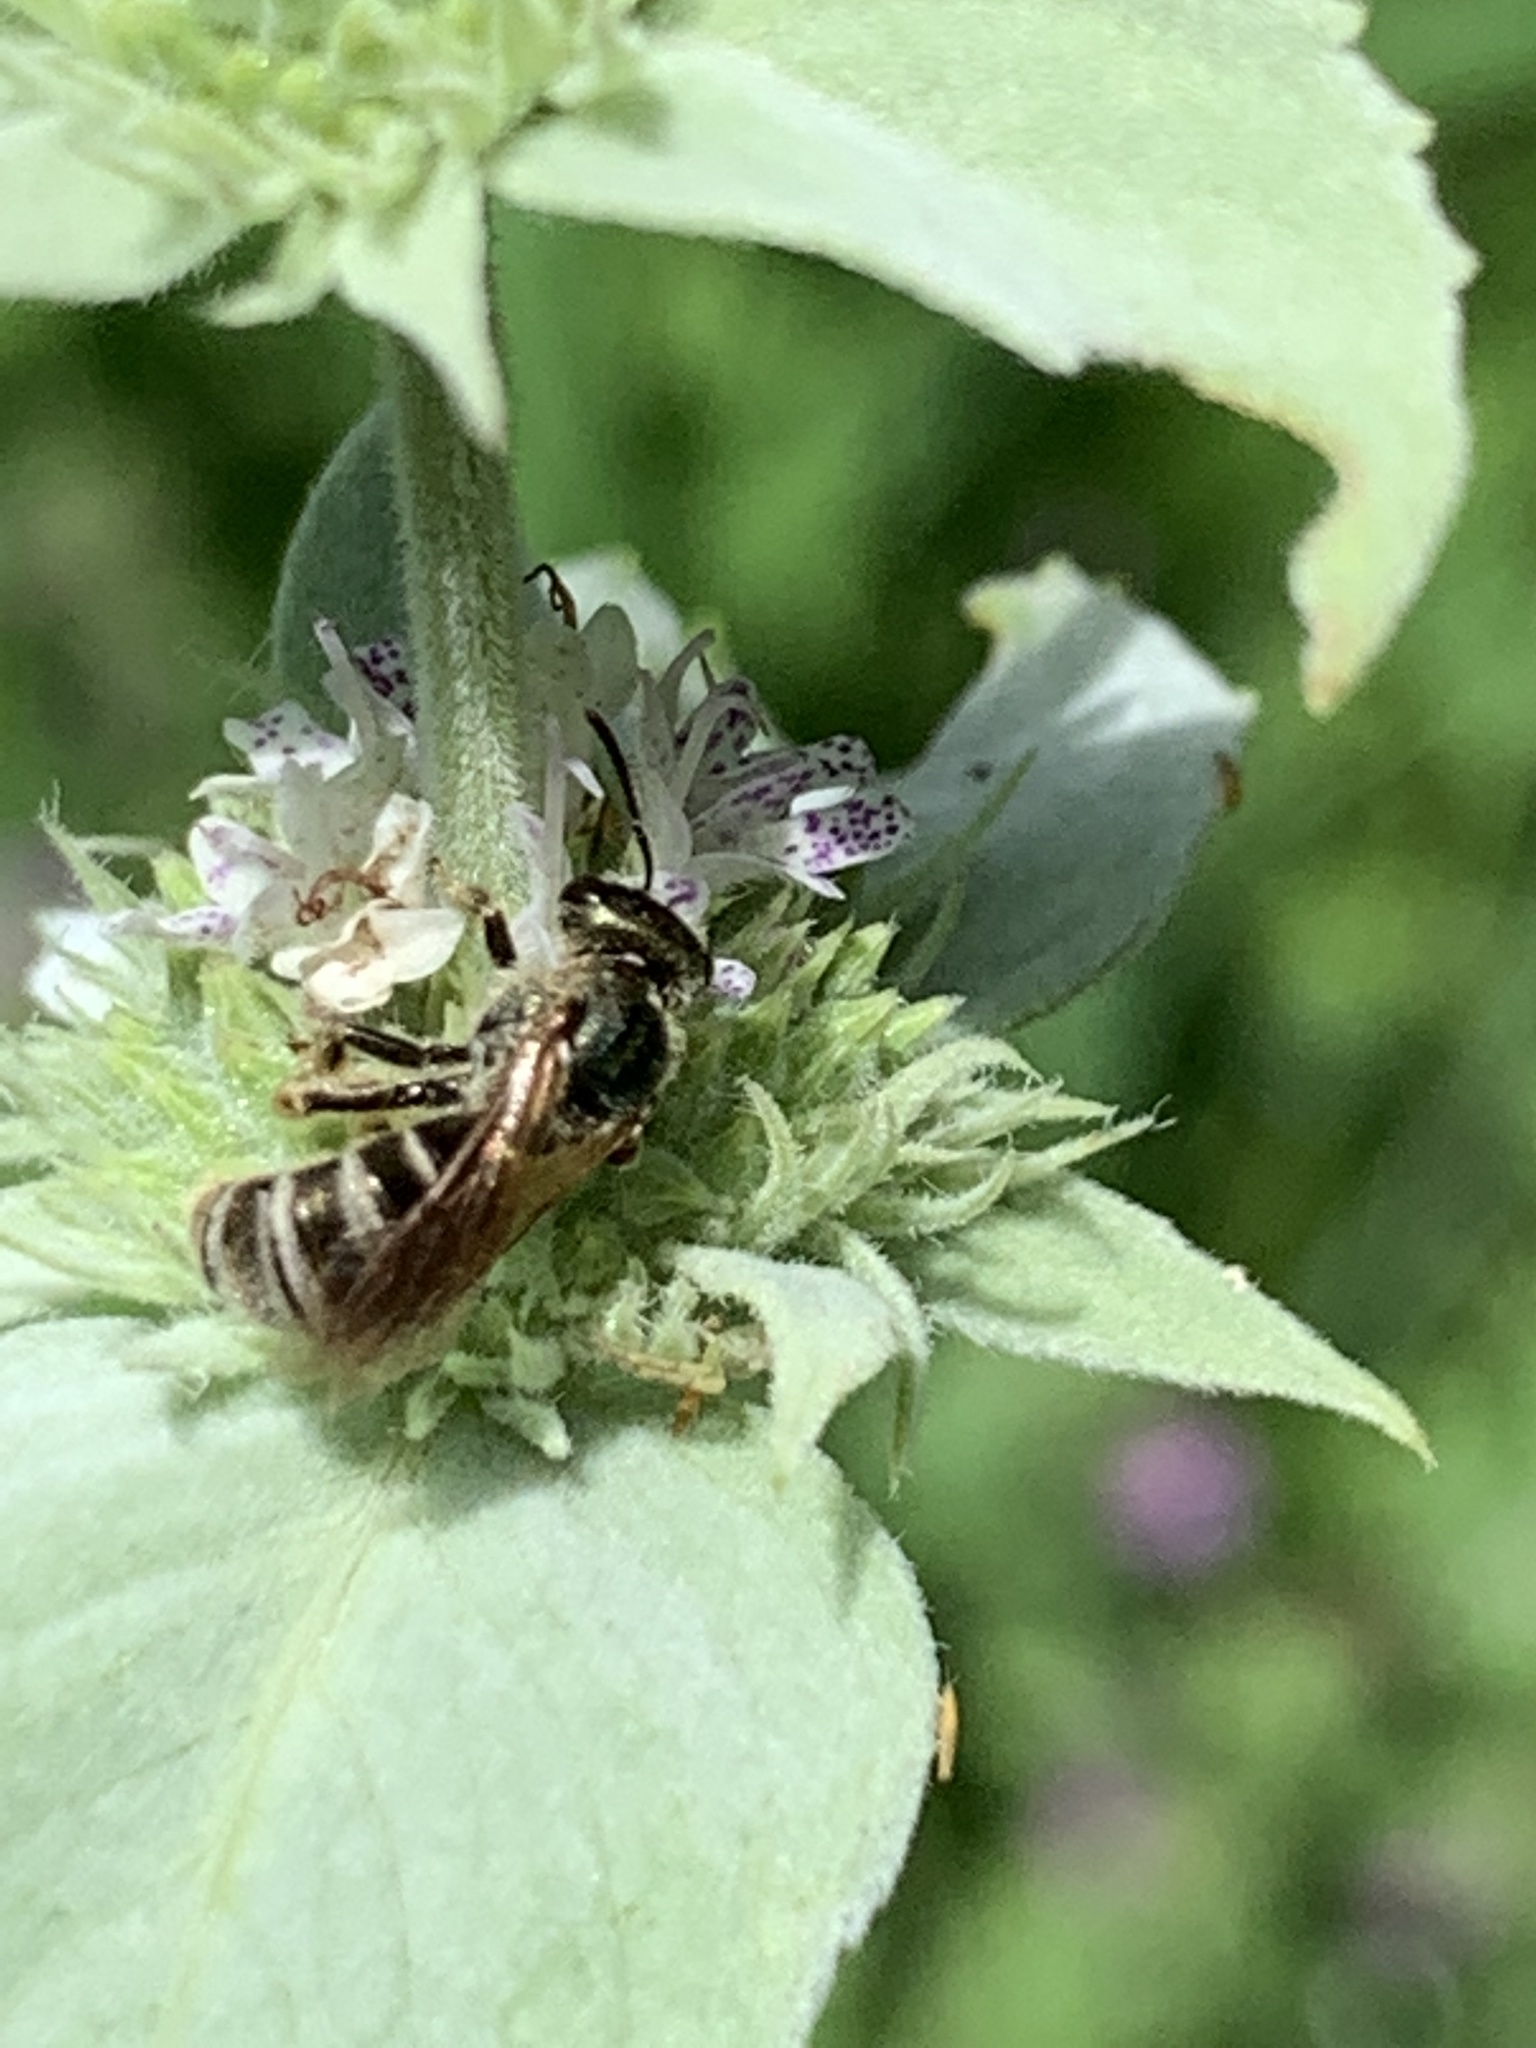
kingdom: Animalia
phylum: Arthropoda
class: Insecta
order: Hymenoptera
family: Halictidae
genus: Halictus
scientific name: Halictus confusus
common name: Southern bronze furrow bee
